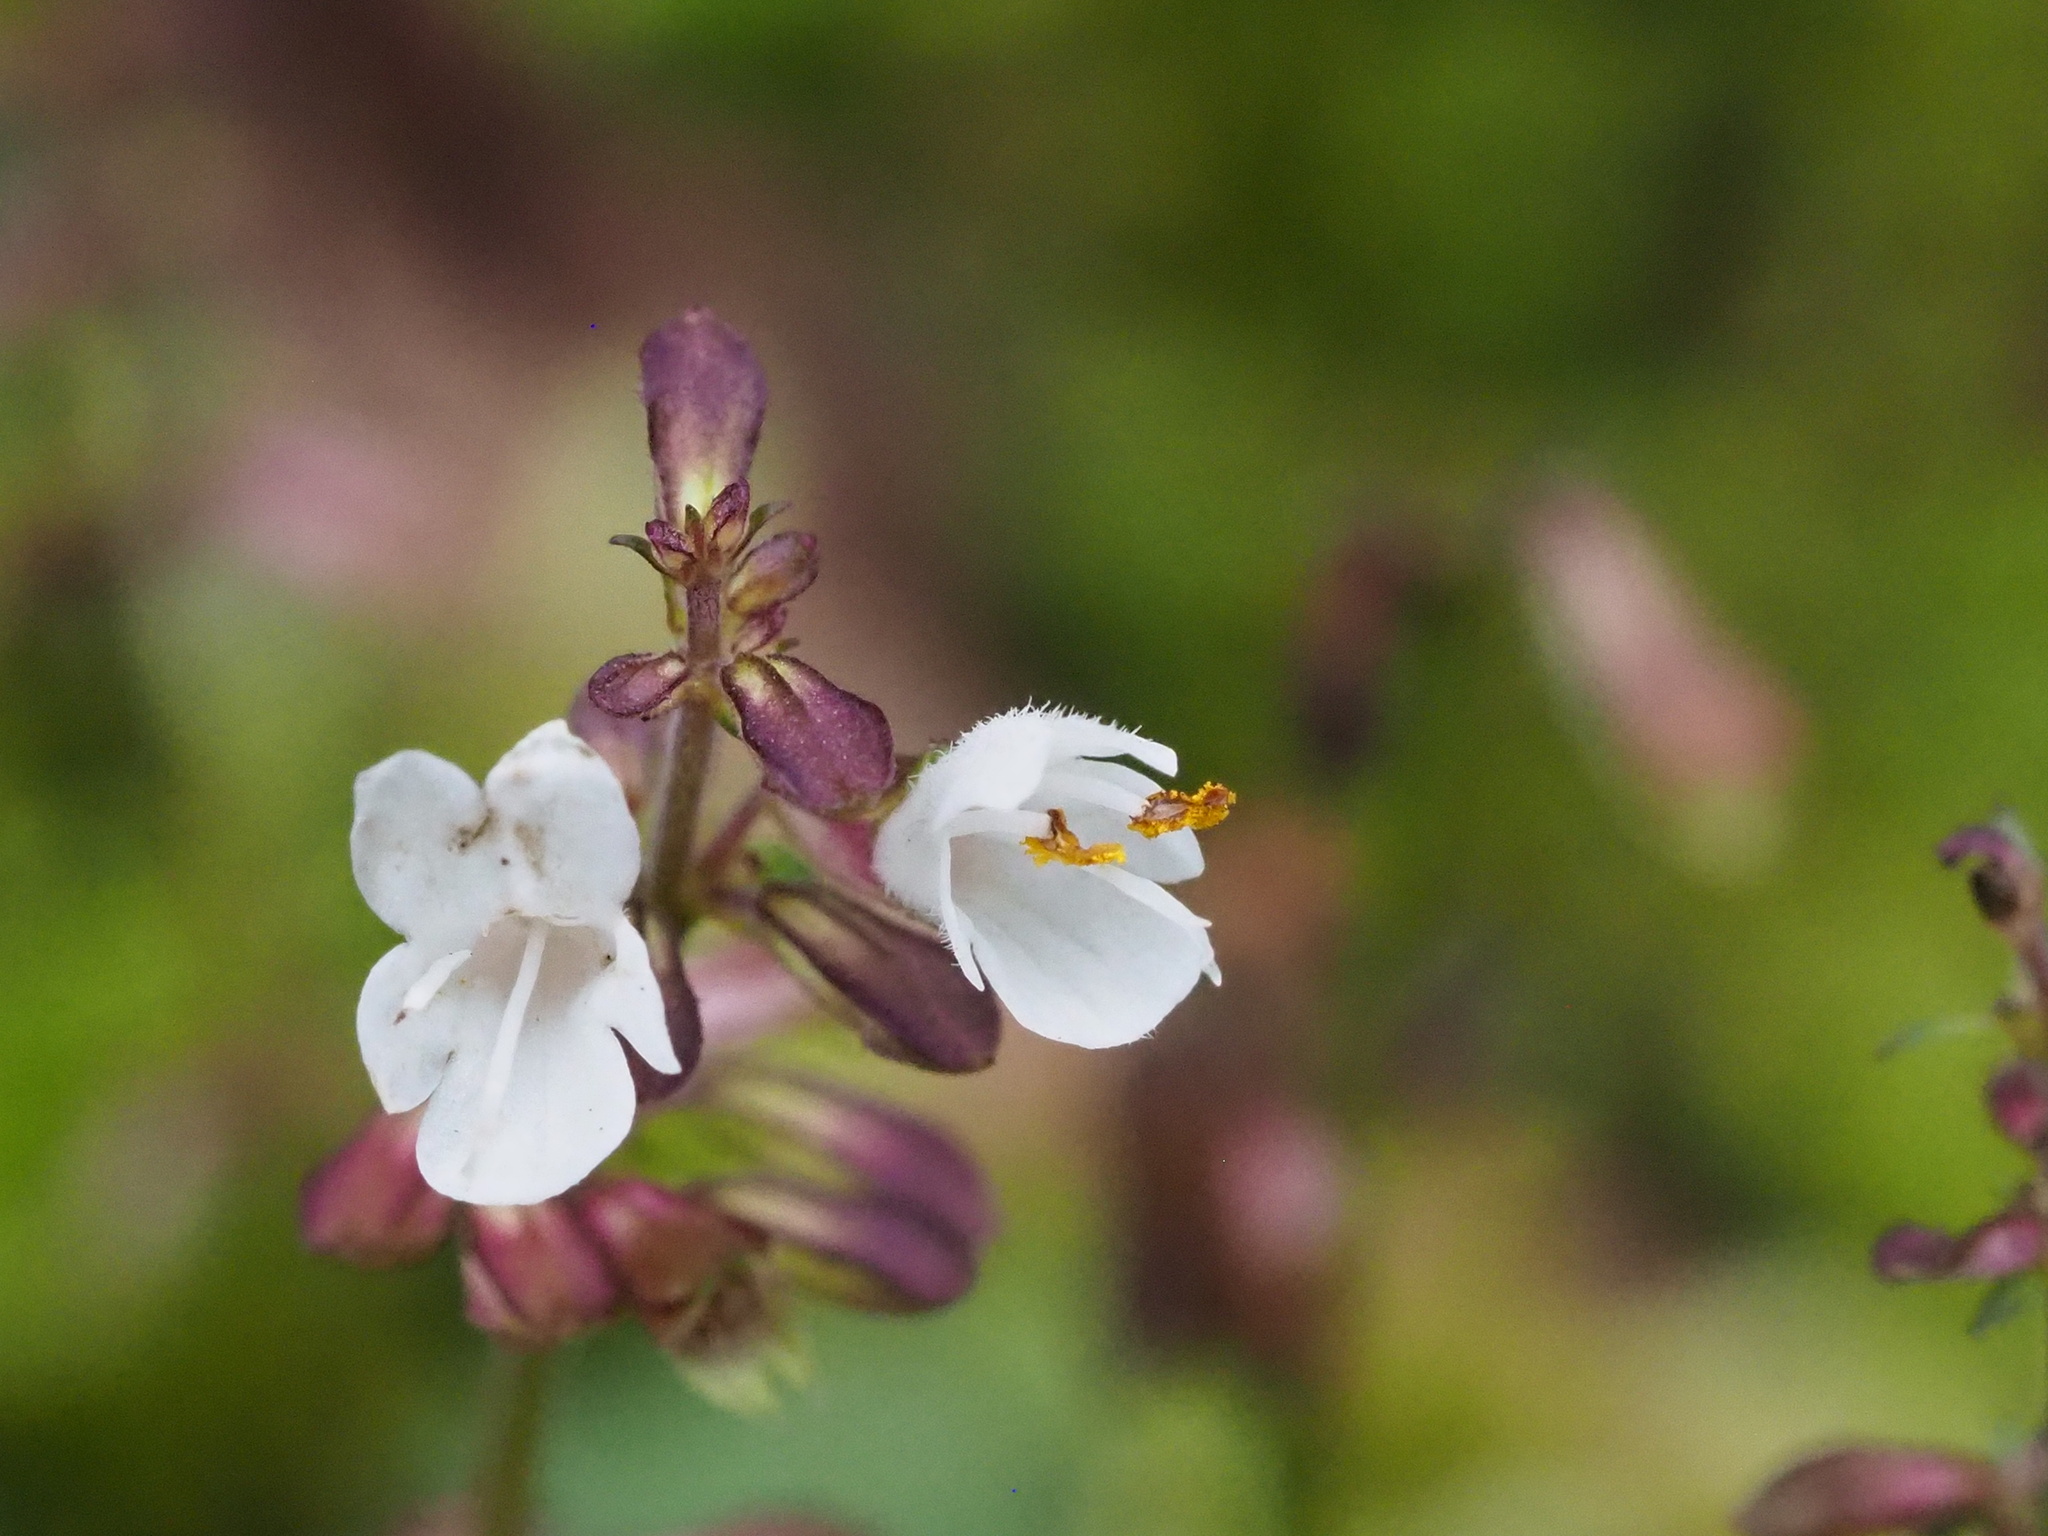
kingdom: Plantae
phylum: Tracheophyta
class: Magnoliopsida
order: Lamiales
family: Lamiaceae
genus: Salvia
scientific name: Salvia hayatae
